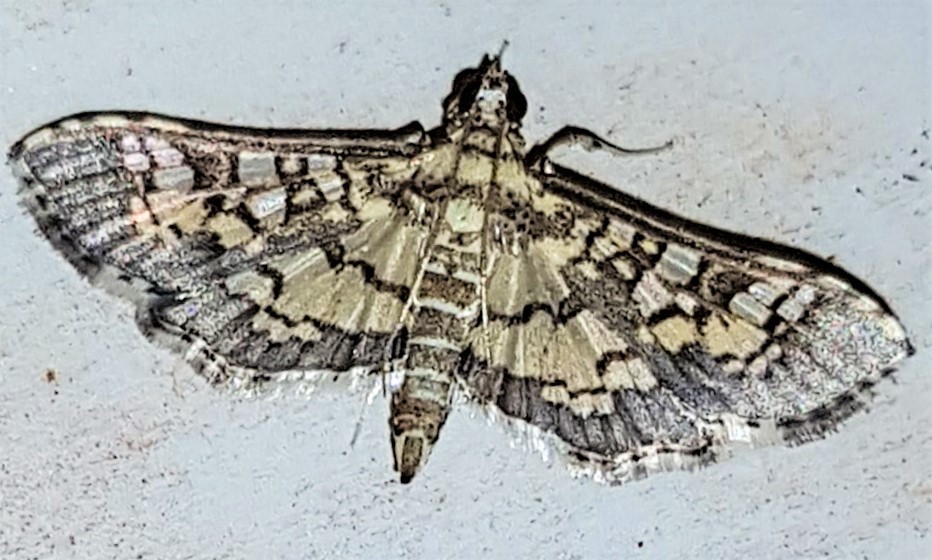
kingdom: Animalia
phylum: Arthropoda
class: Insecta
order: Lepidoptera
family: Crambidae
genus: Samea
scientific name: Samea ecclesialis
